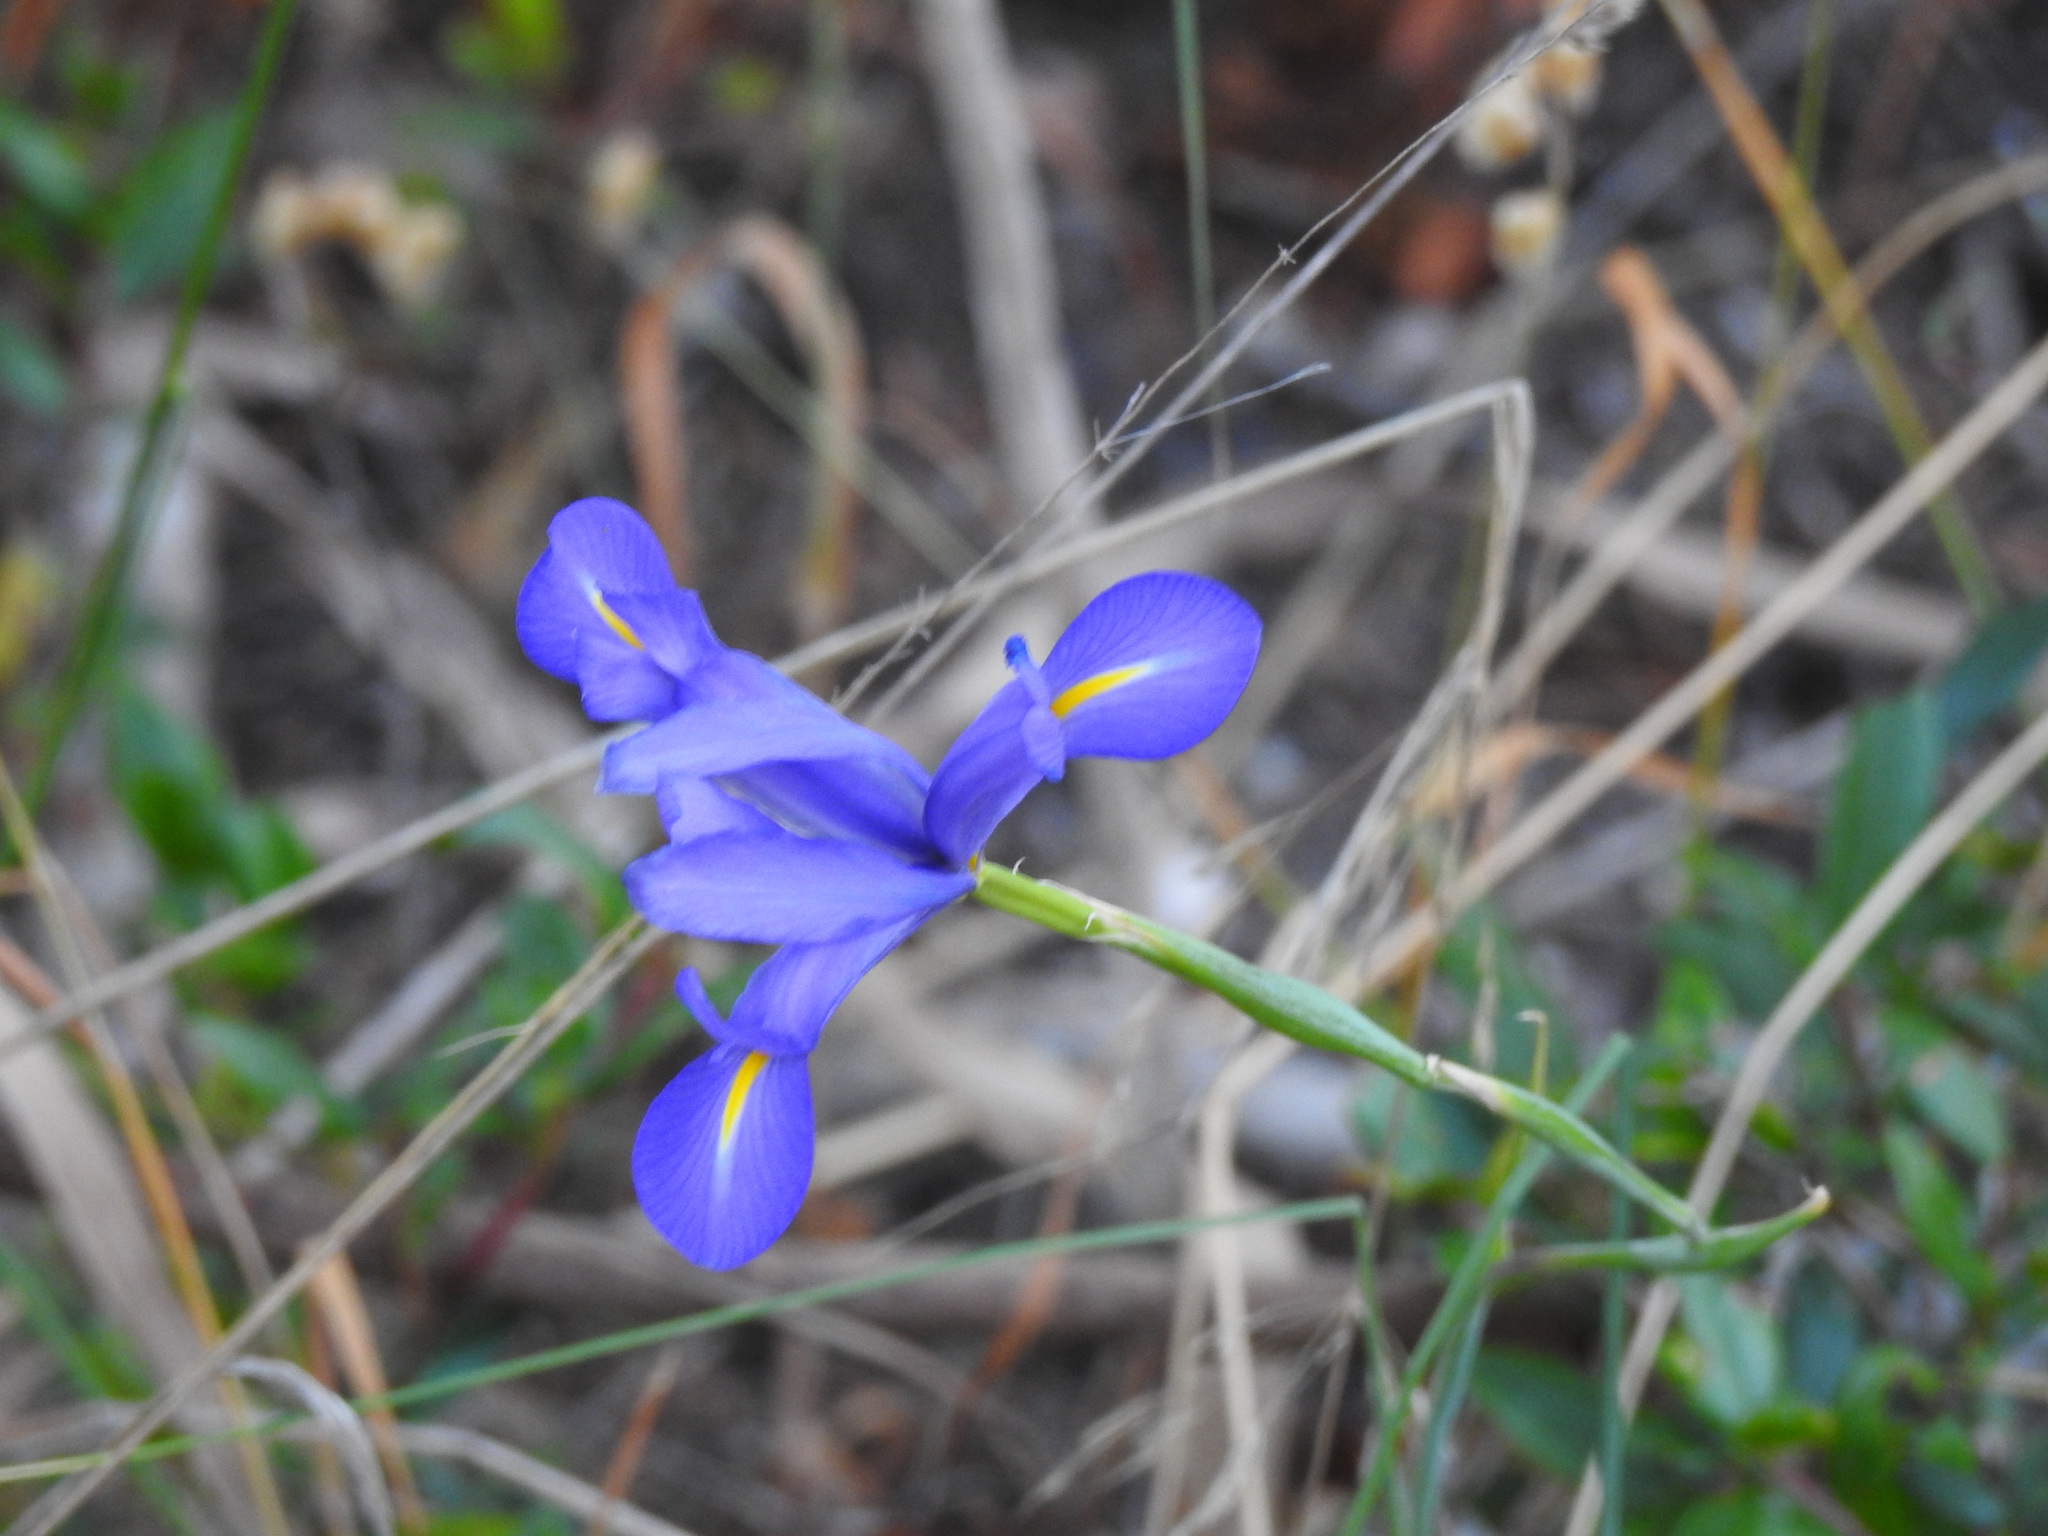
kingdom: Plantae
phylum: Tracheophyta
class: Liliopsida
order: Asparagales
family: Iridaceae
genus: Iris
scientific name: Iris xiphium
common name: Spanish iris
